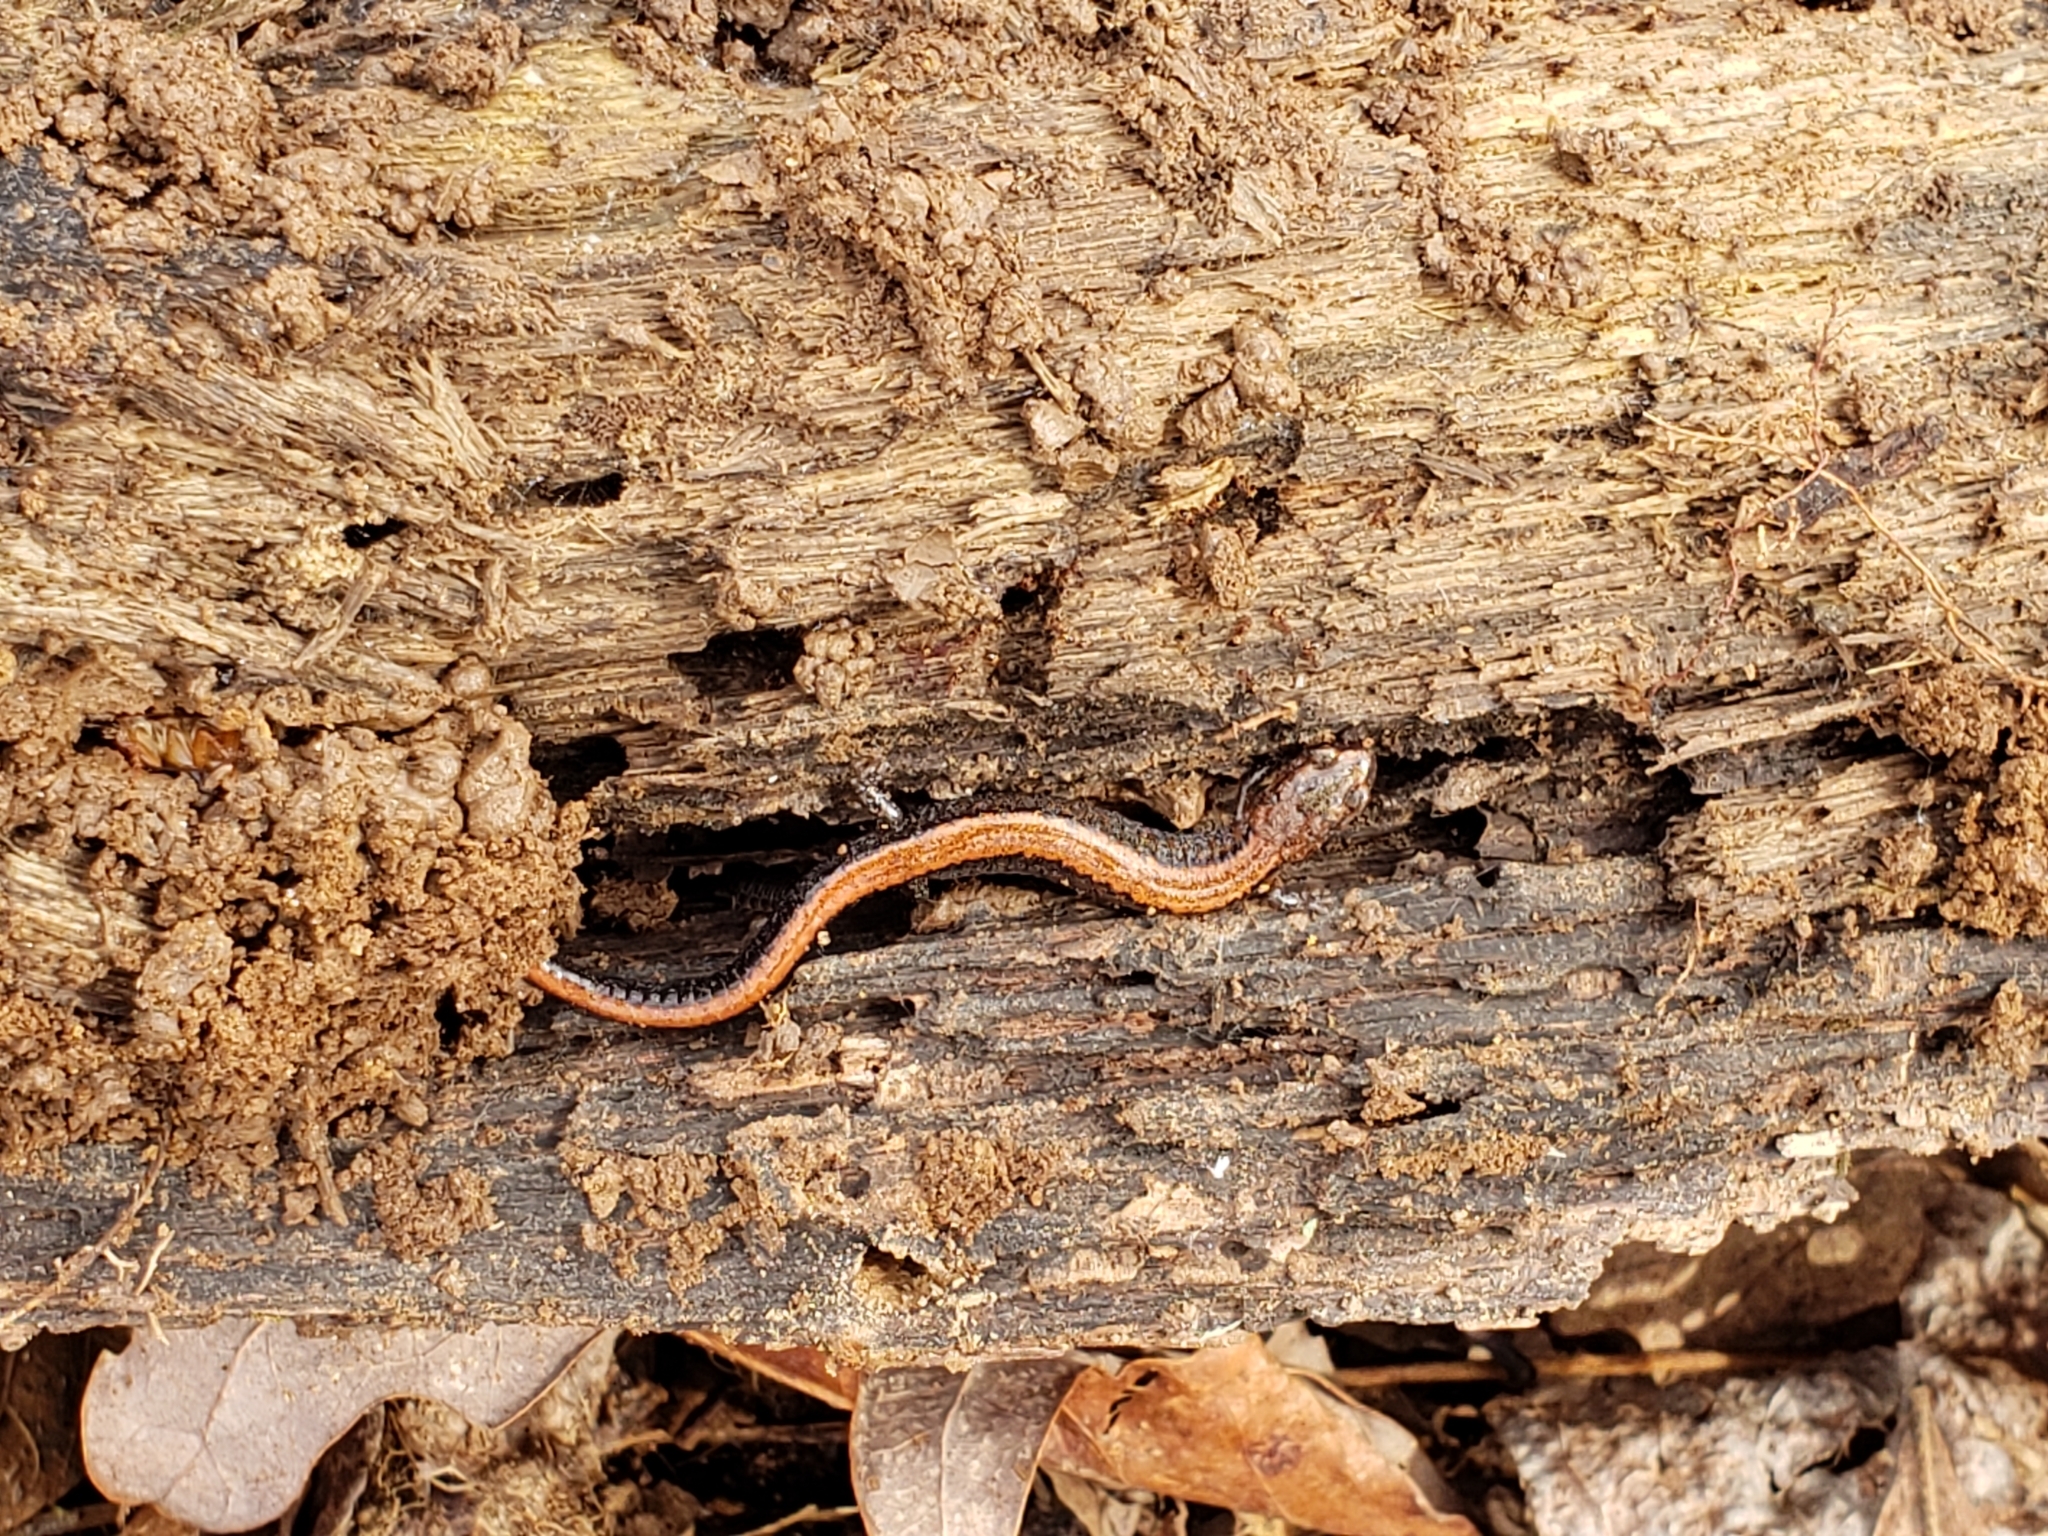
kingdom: Animalia
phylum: Chordata
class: Amphibia
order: Caudata
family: Plethodontidae
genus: Plethodon
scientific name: Plethodon cinereus
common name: Redback salamander
